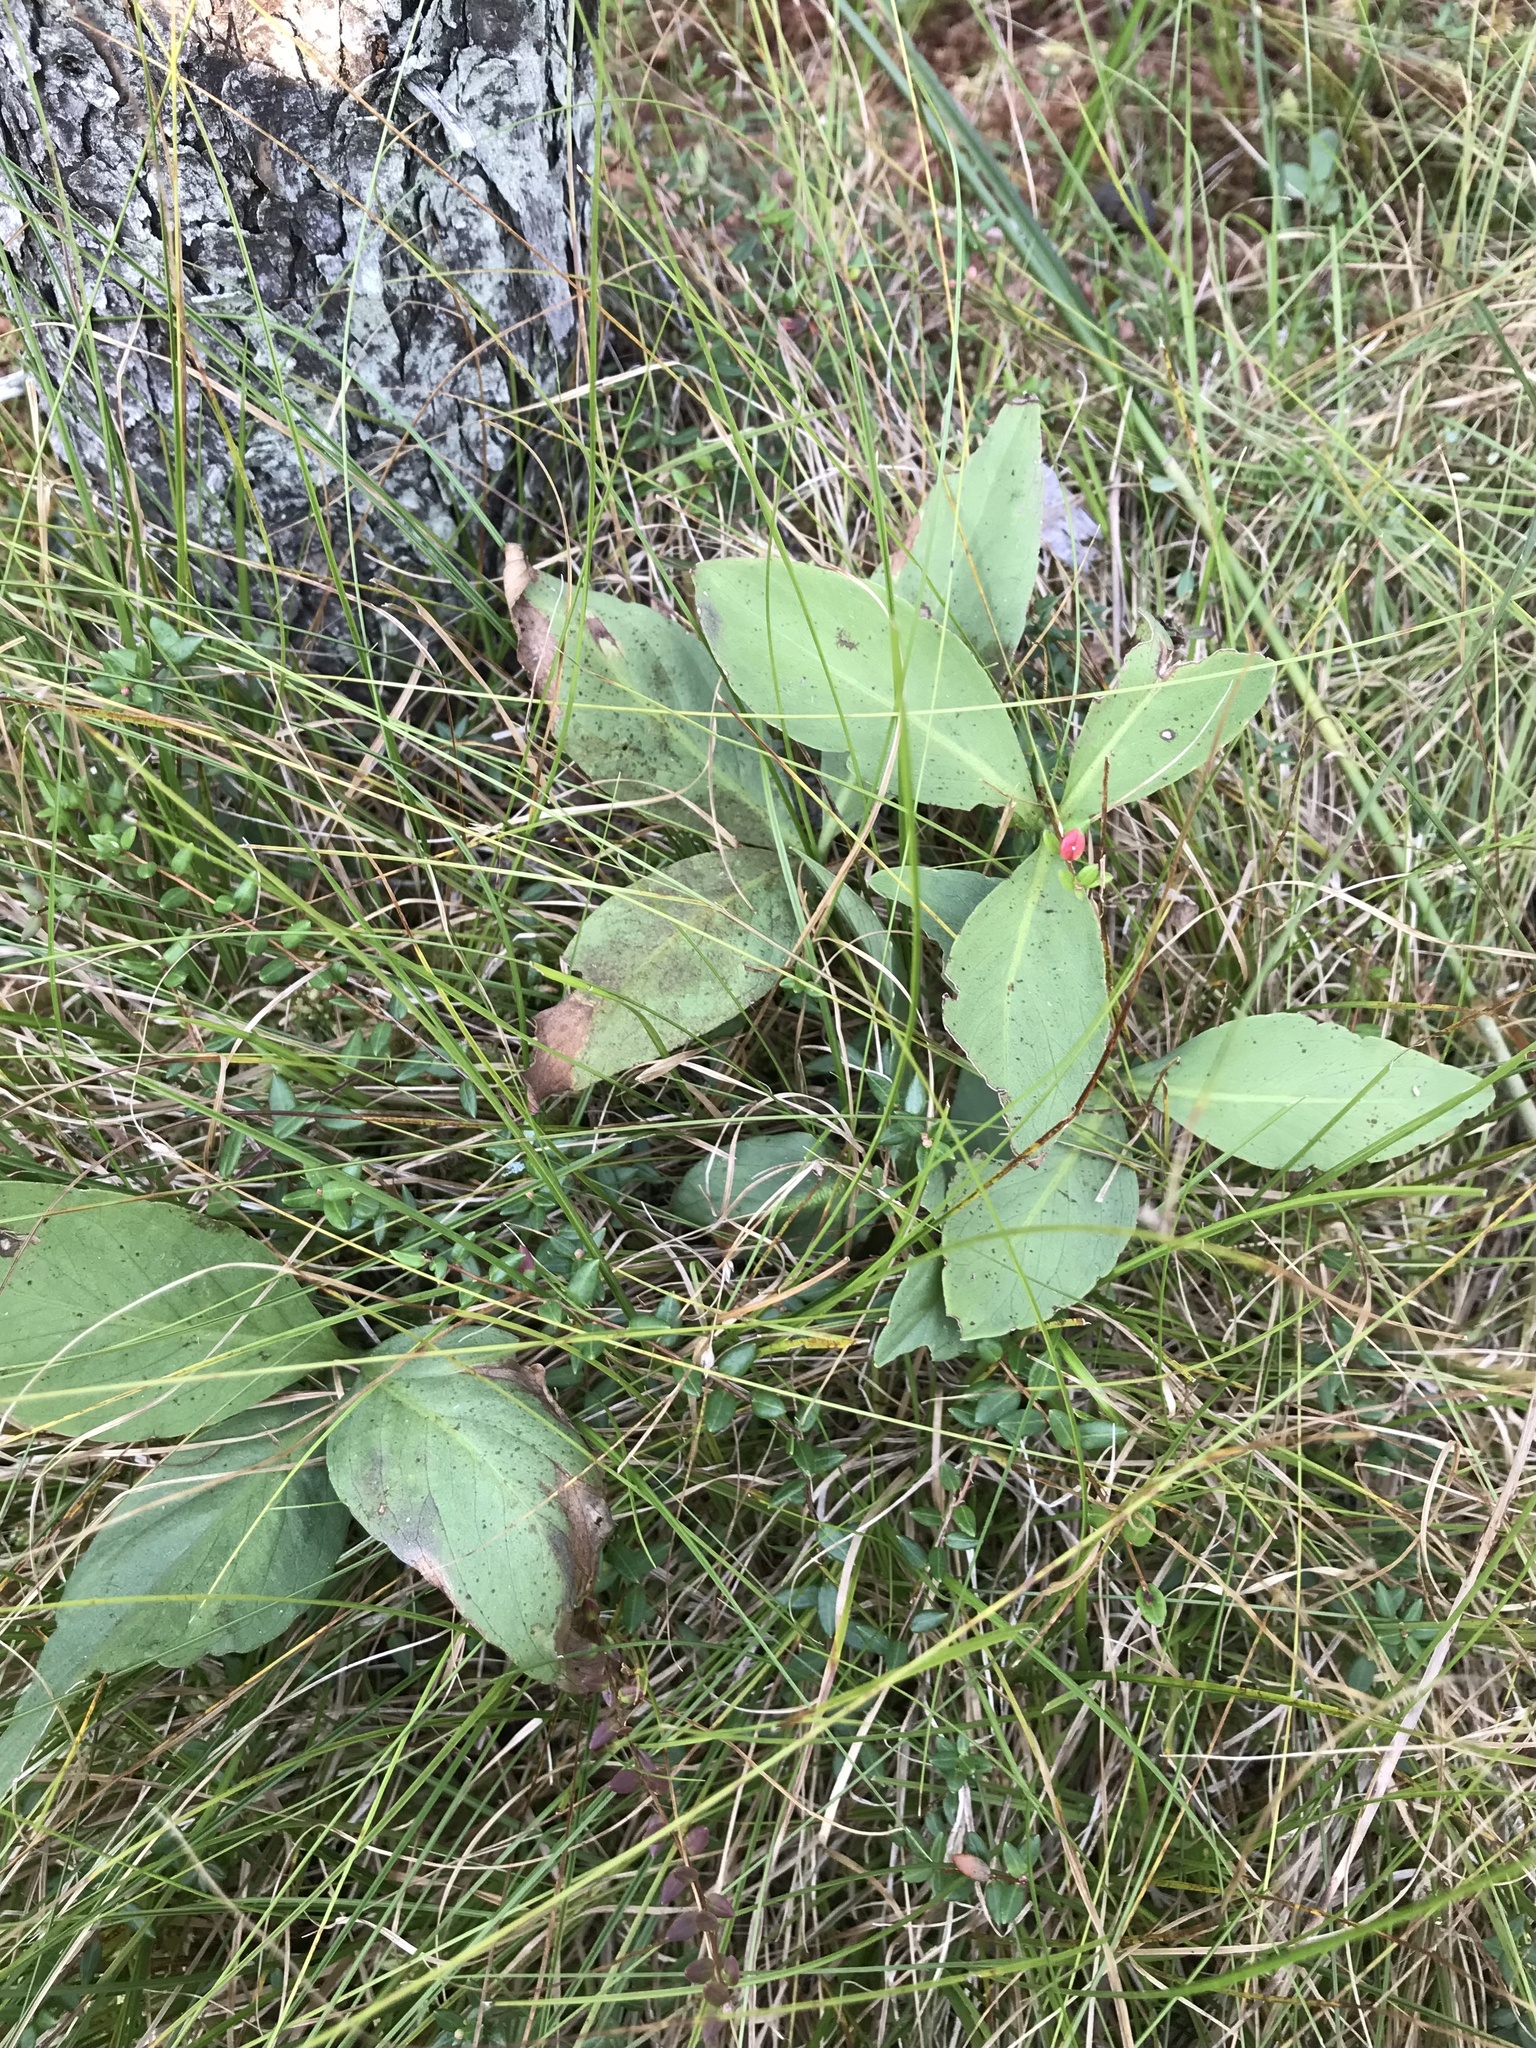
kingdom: Plantae
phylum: Tracheophyta
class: Magnoliopsida
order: Asterales
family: Menyanthaceae
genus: Menyanthes
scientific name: Menyanthes trifoliata
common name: Bogbean
